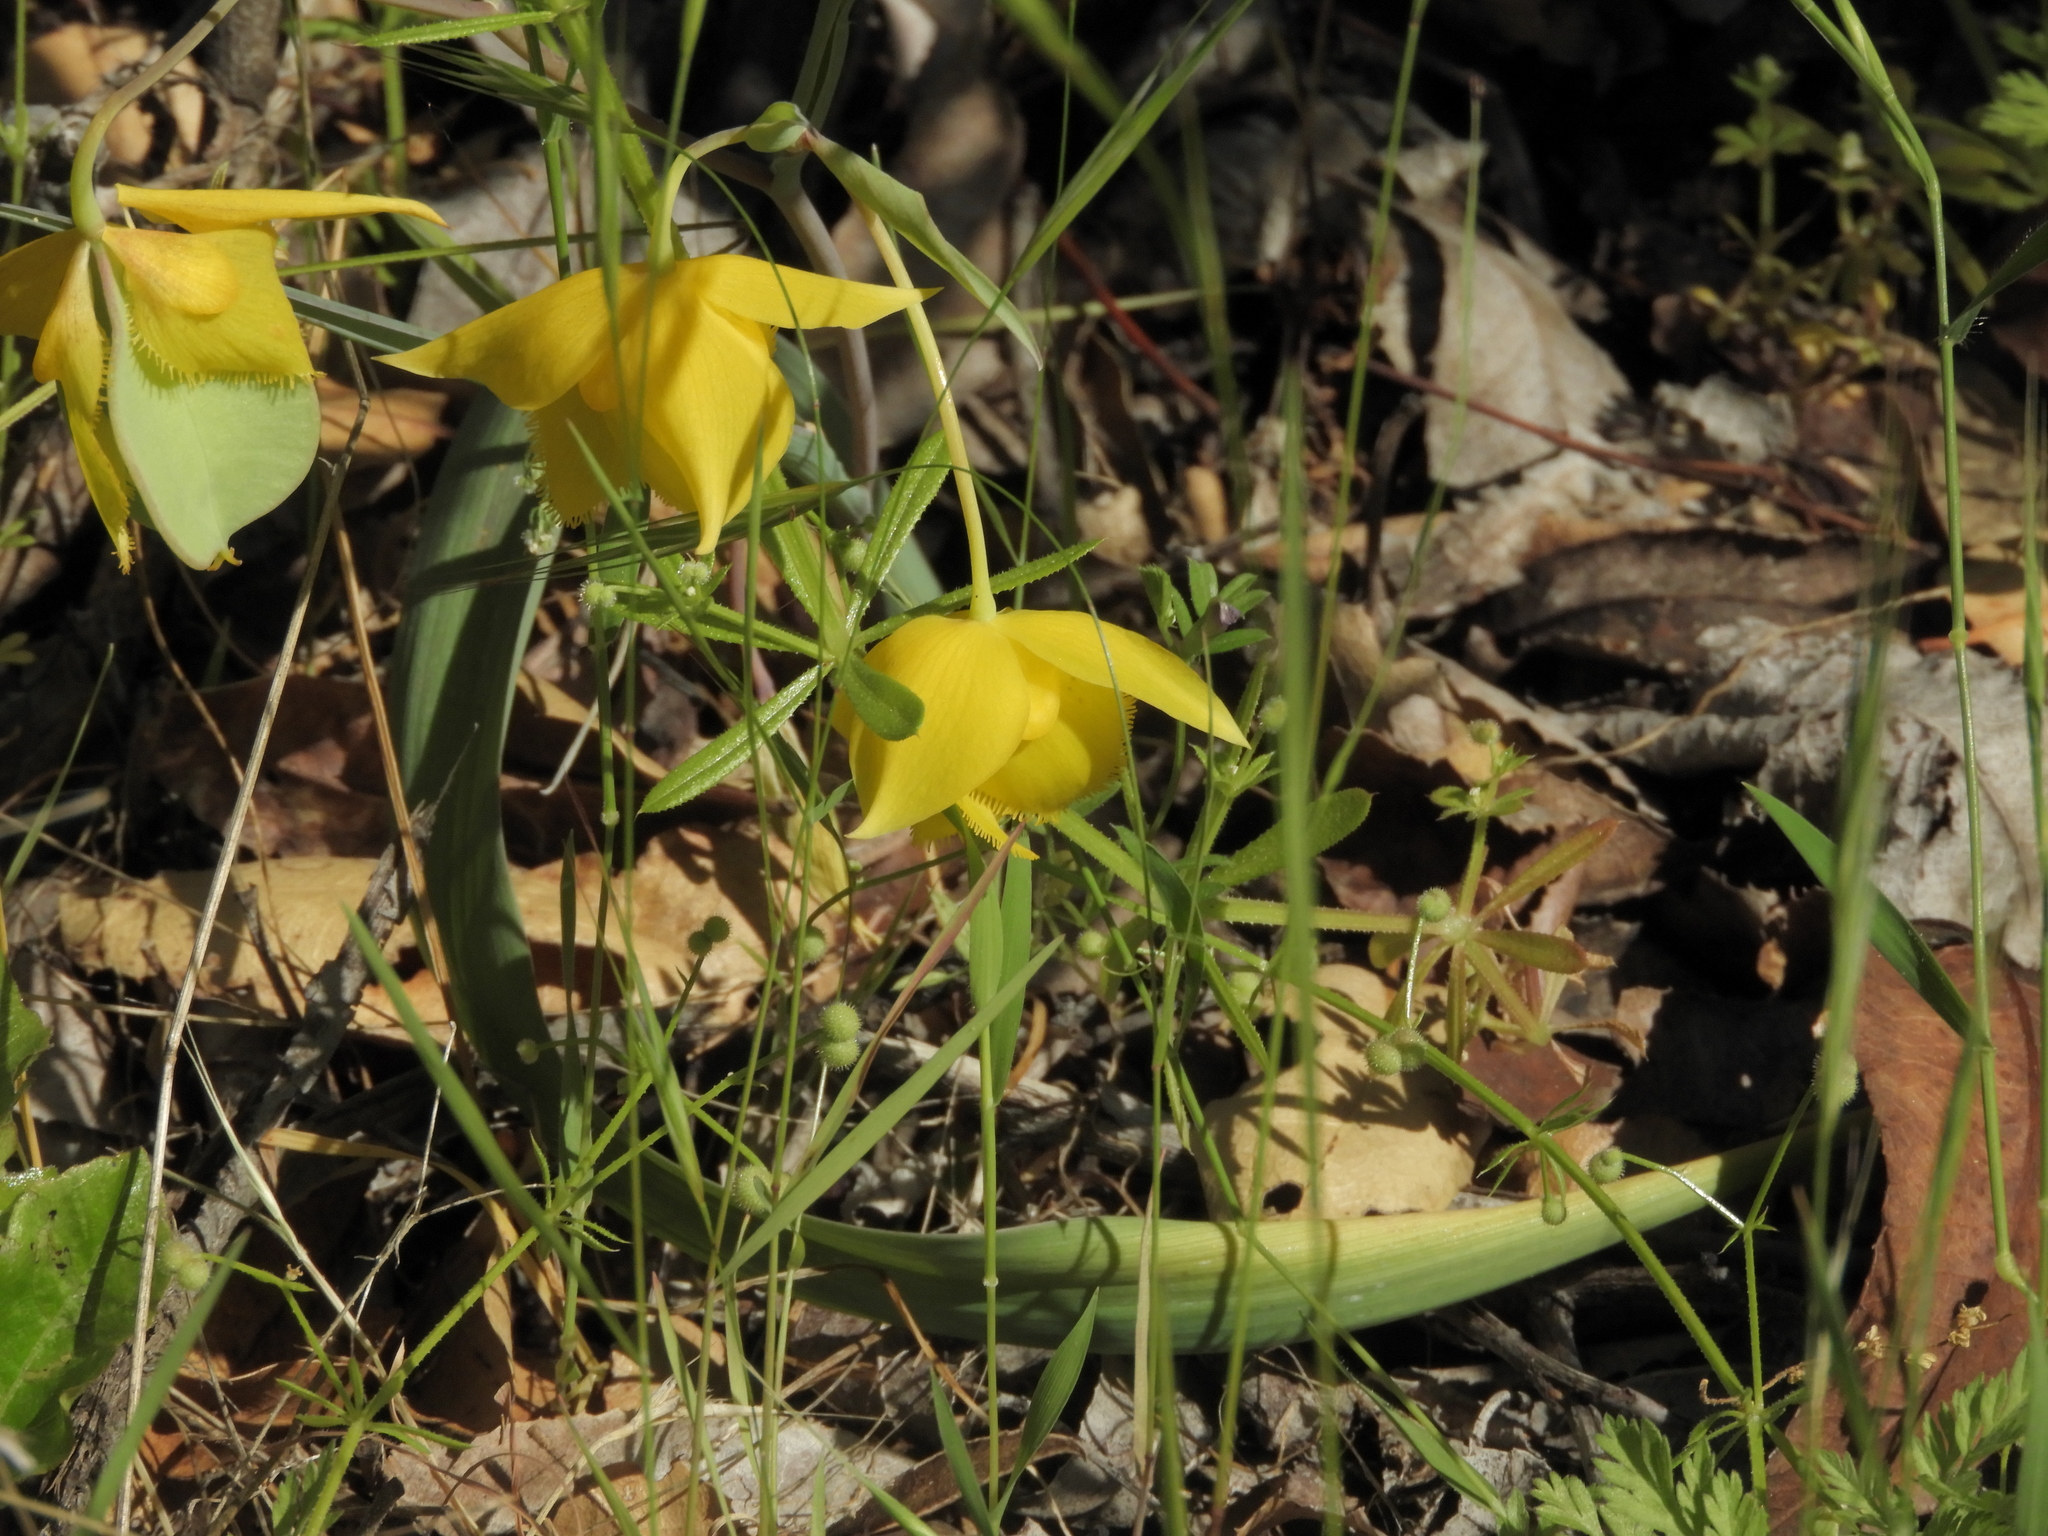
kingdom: Plantae
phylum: Tracheophyta
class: Liliopsida
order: Liliales
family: Liliaceae
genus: Calochortus
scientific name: Calochortus amabilis
